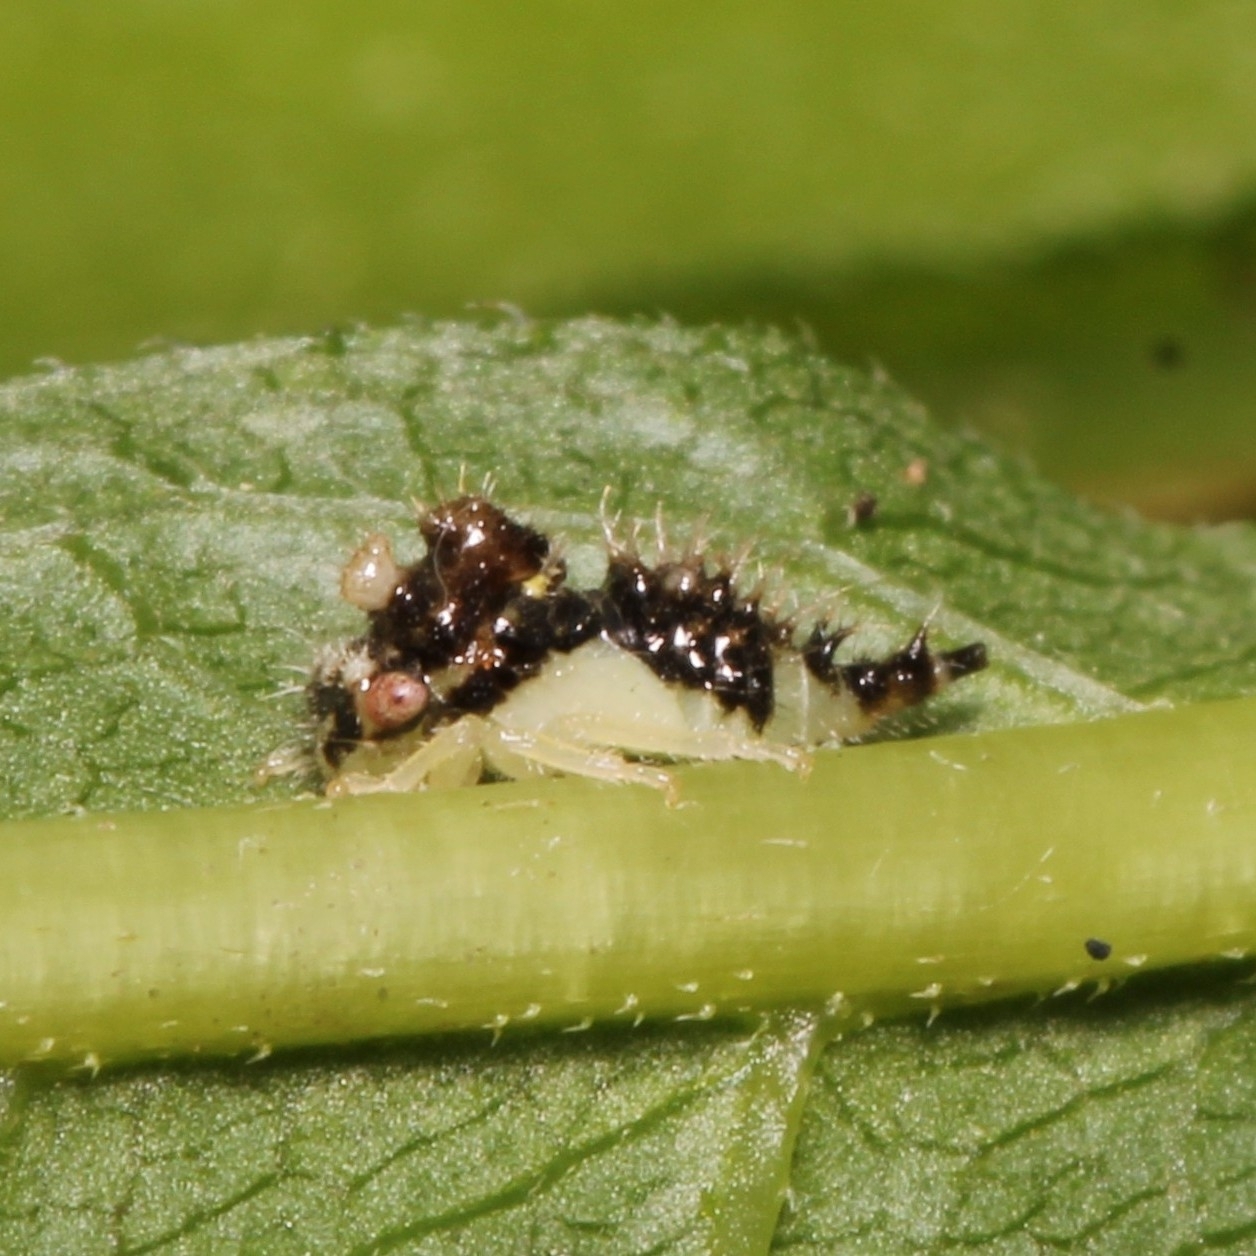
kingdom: Animalia
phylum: Arthropoda
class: Insecta
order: Hemiptera
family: Membracidae
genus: Entylia
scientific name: Entylia carinata
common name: Keeled treehopper
